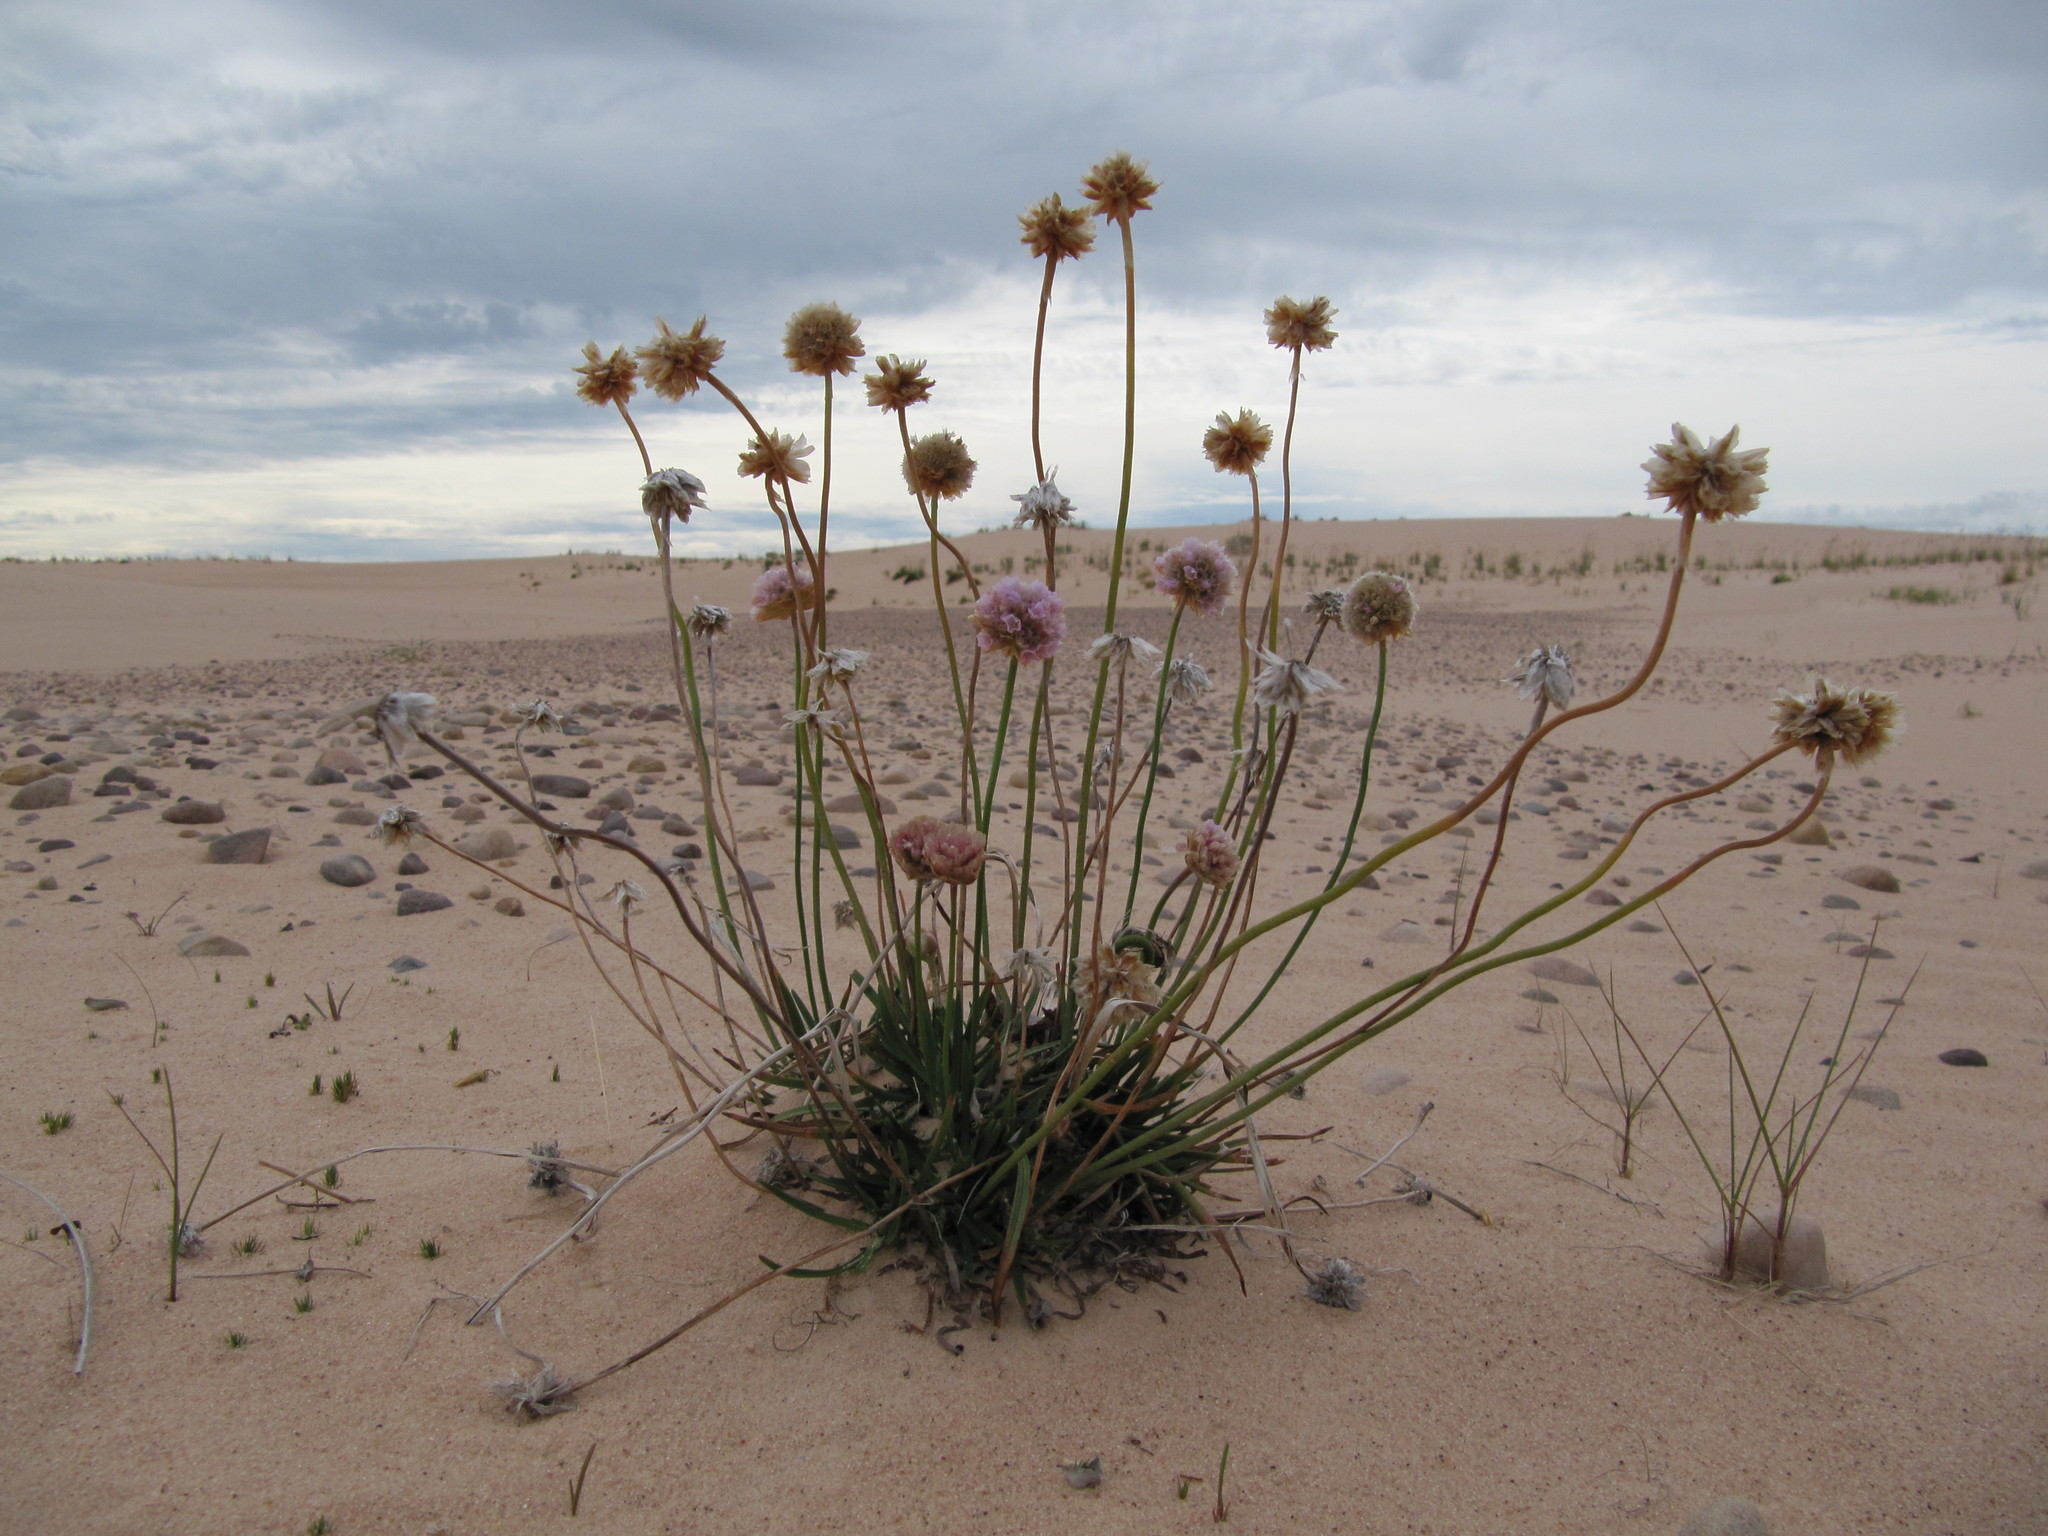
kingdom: Plantae
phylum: Tracheophyta
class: Magnoliopsida
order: Caryophyllales
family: Plumbaginaceae
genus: Armeria
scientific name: Armeria maritima
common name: Thrift
